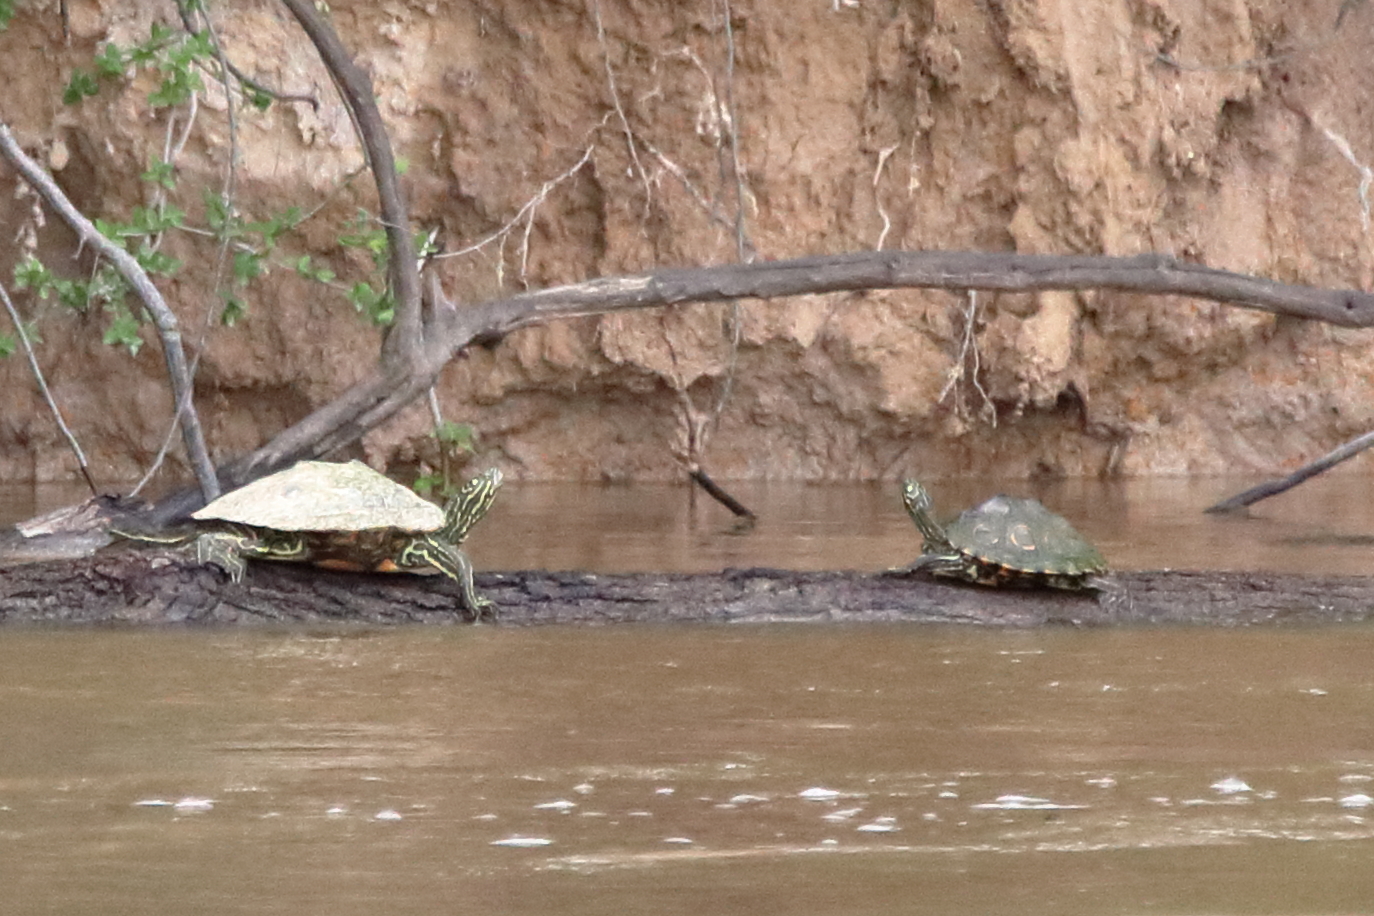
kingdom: Animalia
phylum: Chordata
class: Testudines
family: Emydidae
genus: Graptemys
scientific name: Graptemys oculifera
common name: Ringed map turtle
